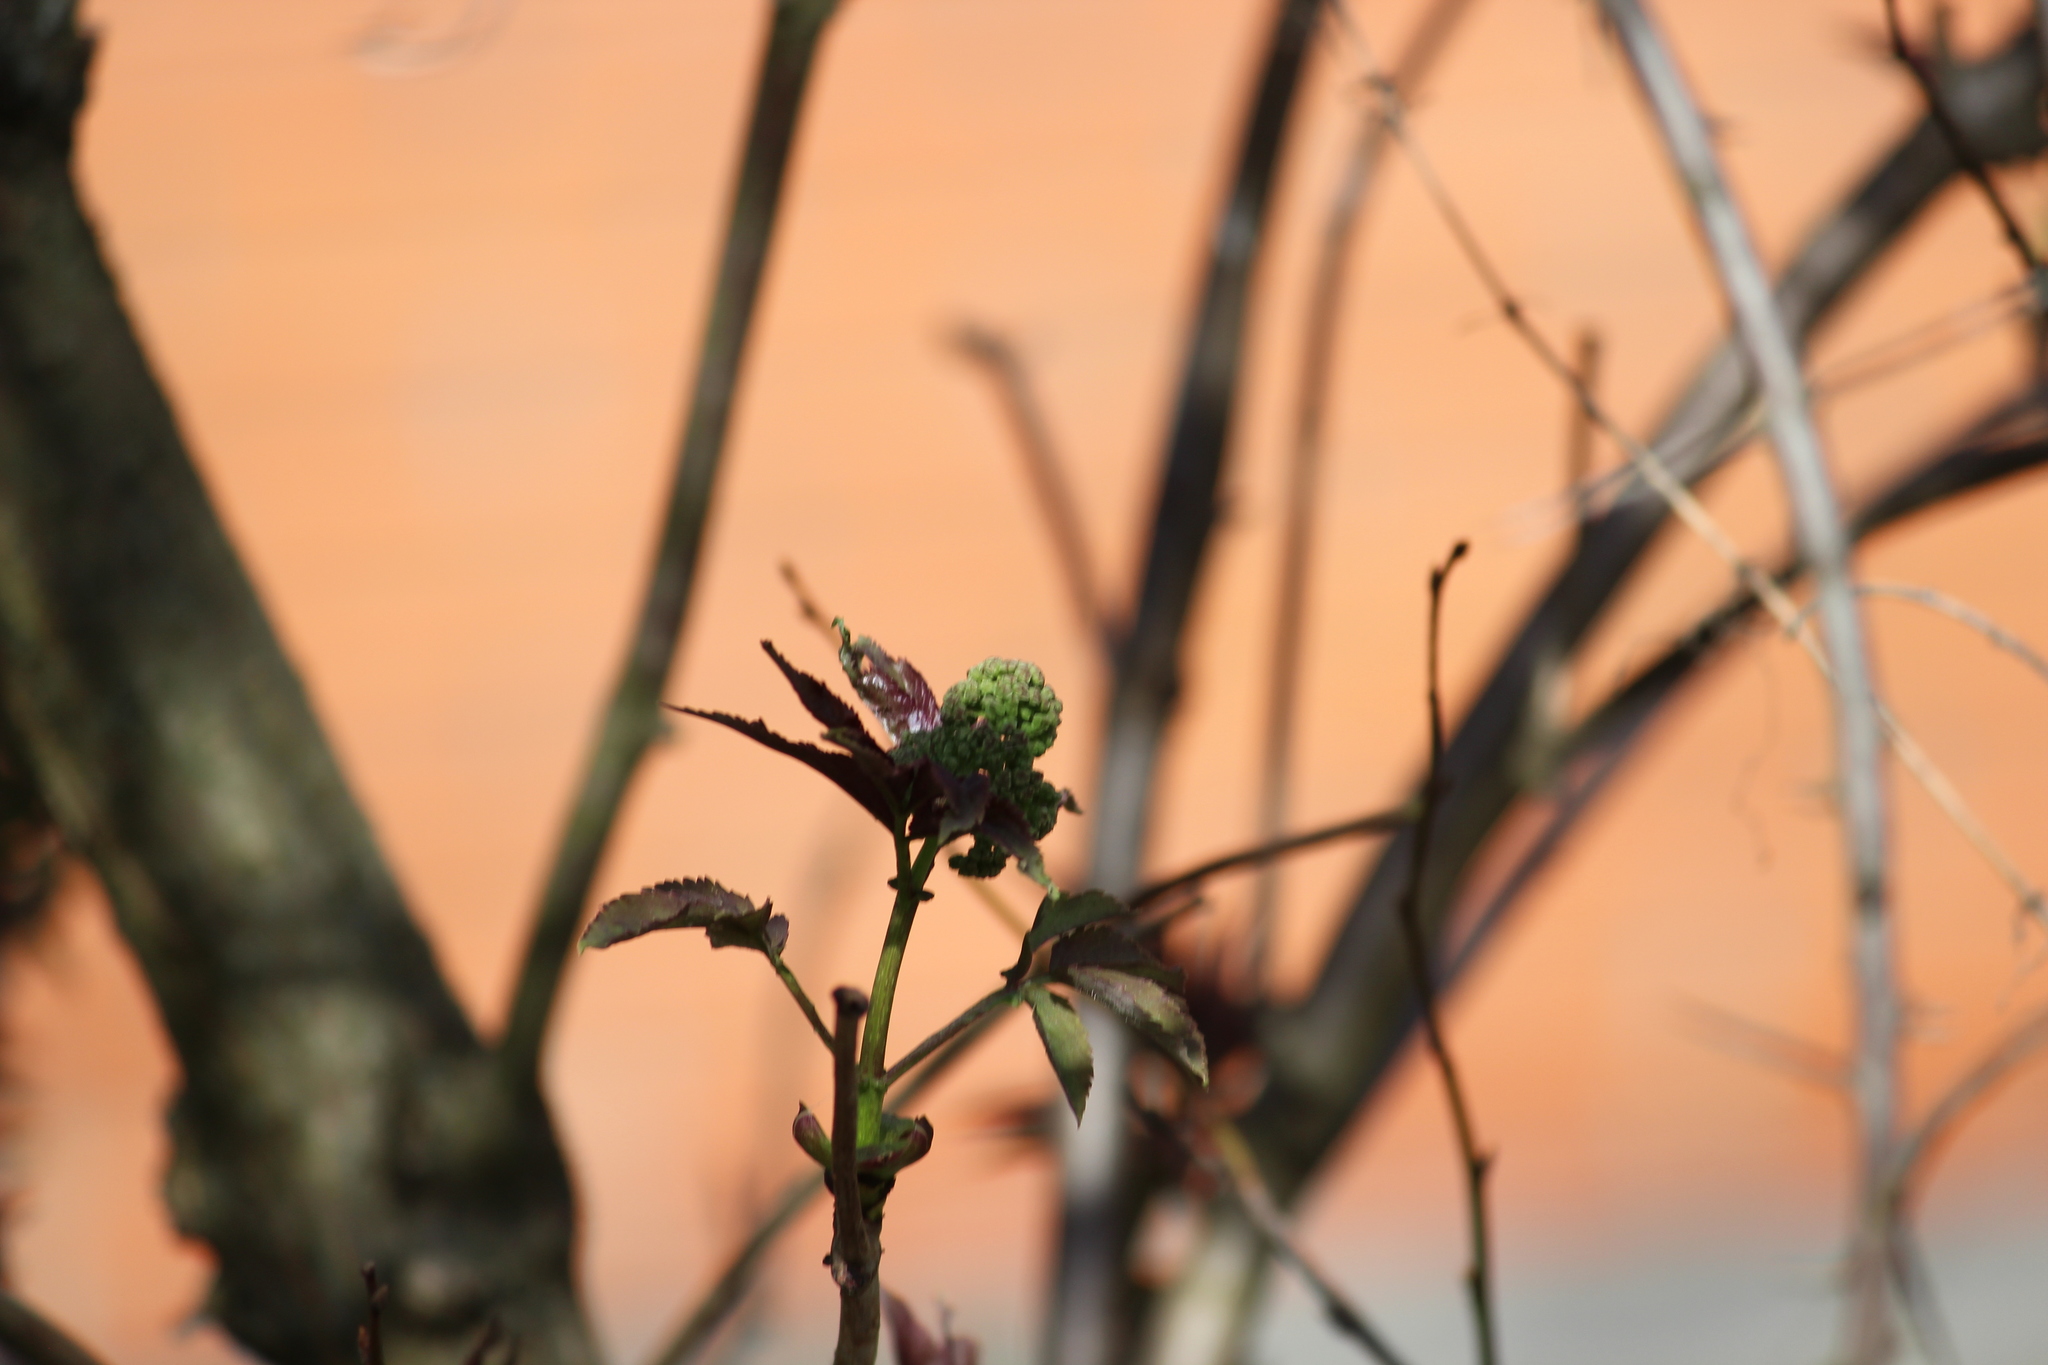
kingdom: Plantae
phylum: Tracheophyta
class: Magnoliopsida
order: Dipsacales
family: Viburnaceae
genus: Sambucus
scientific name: Sambucus racemosa
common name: Red-berried elder
